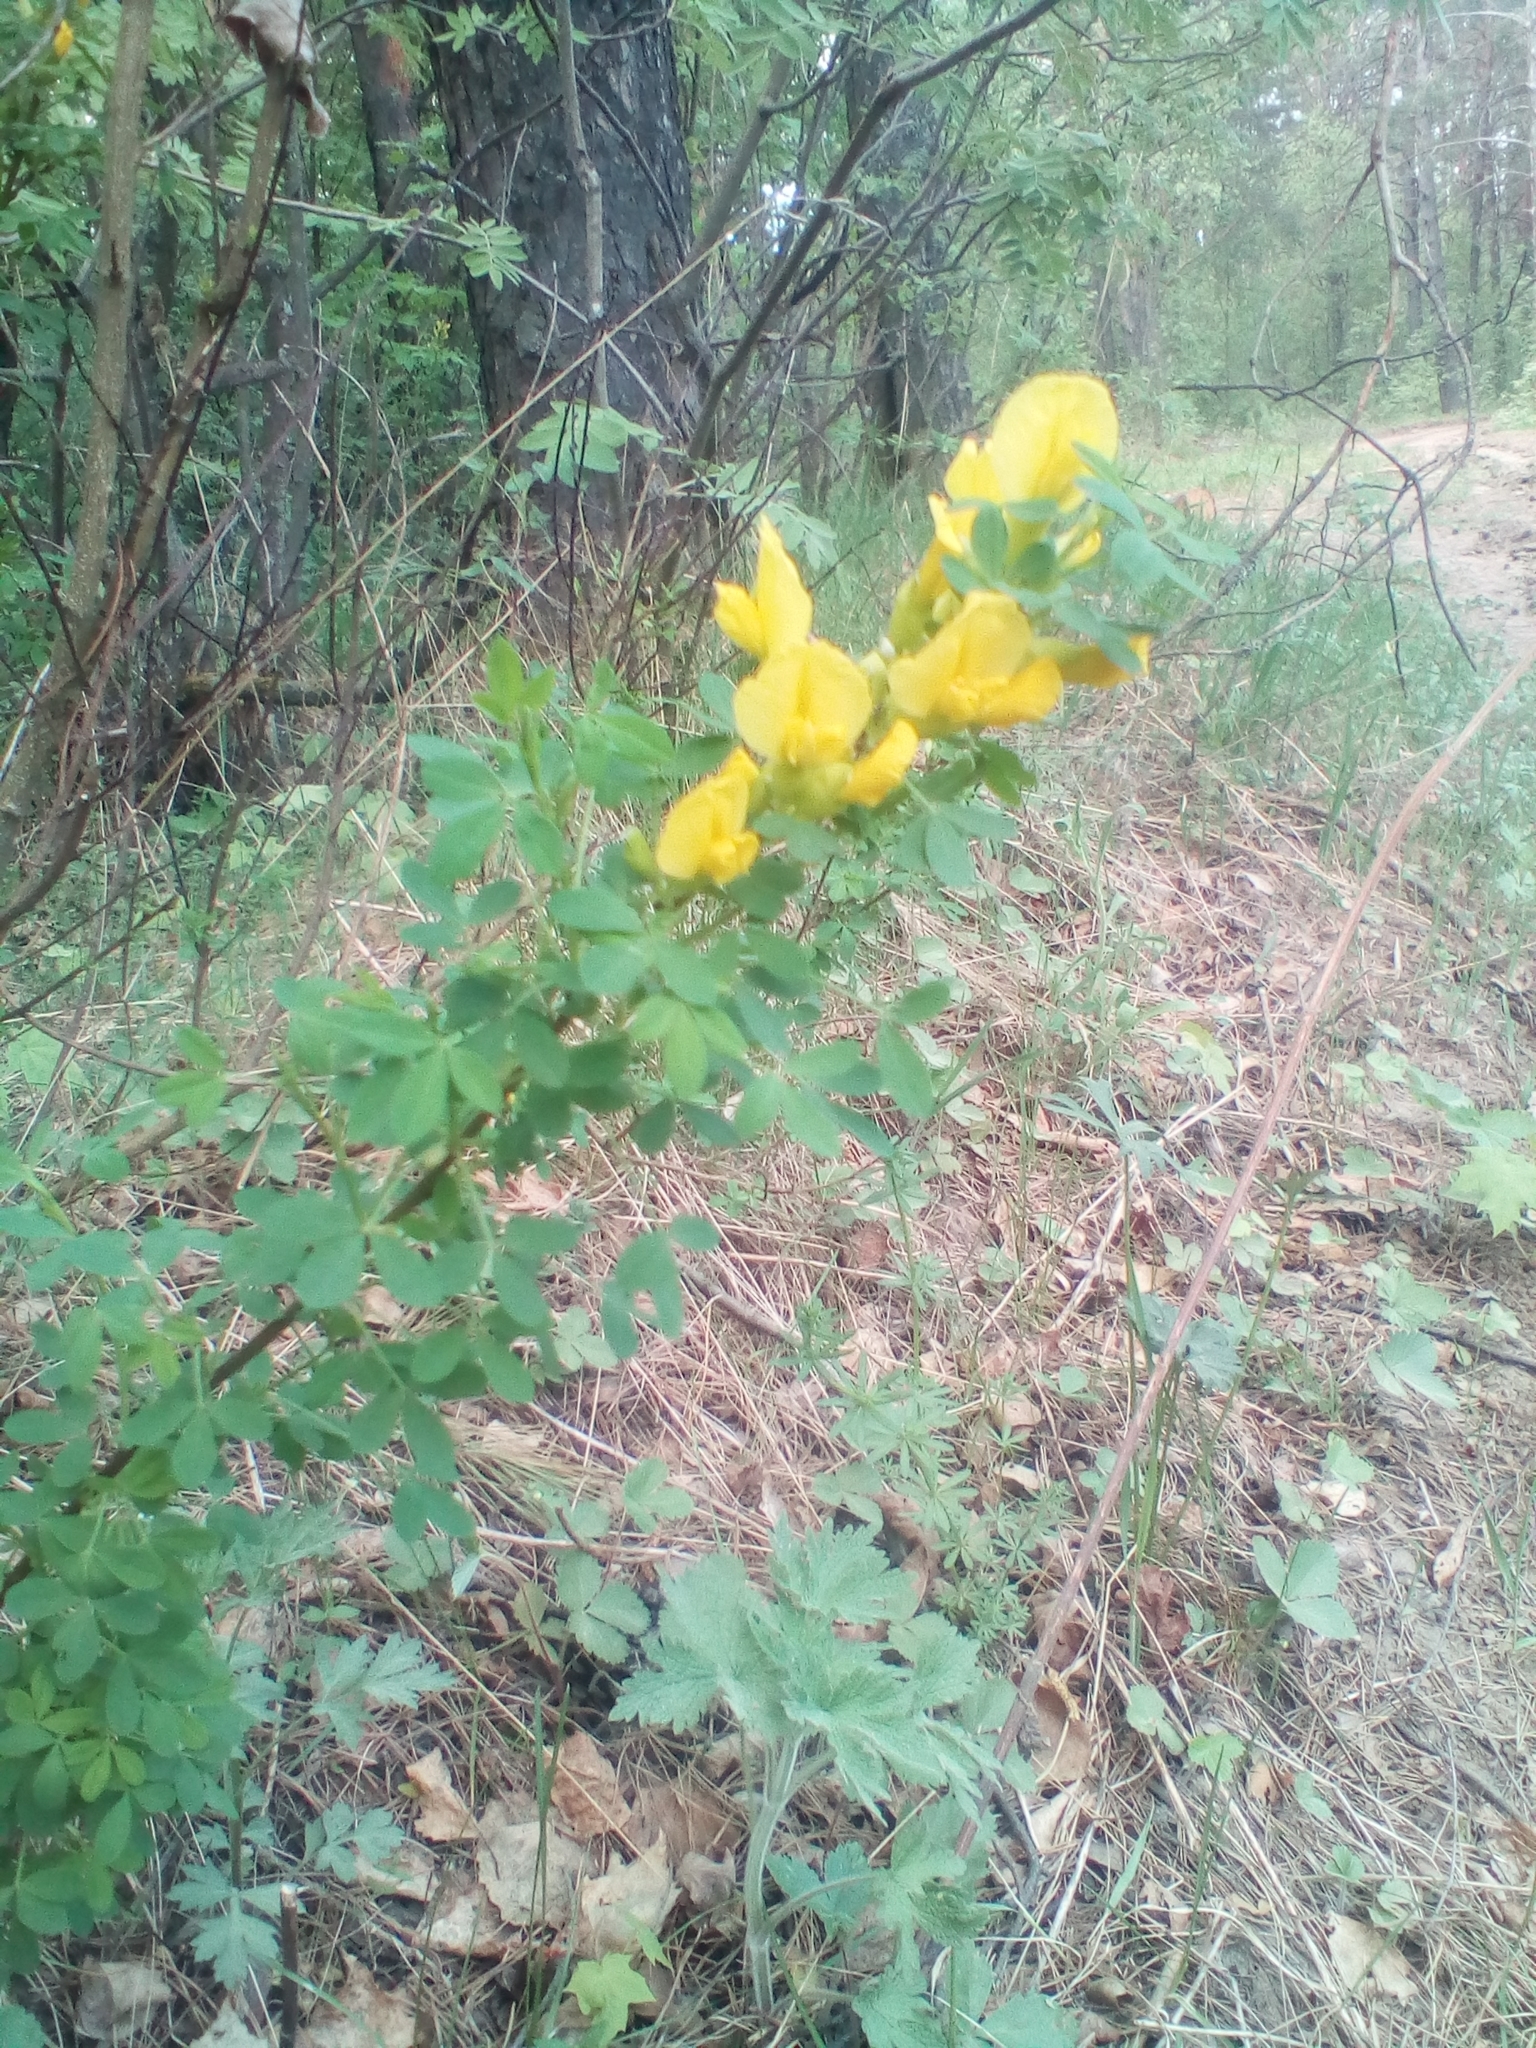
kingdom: Plantae
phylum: Tracheophyta
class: Magnoliopsida
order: Fabales
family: Fabaceae
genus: Chamaecytisus
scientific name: Chamaecytisus ruthenicus
